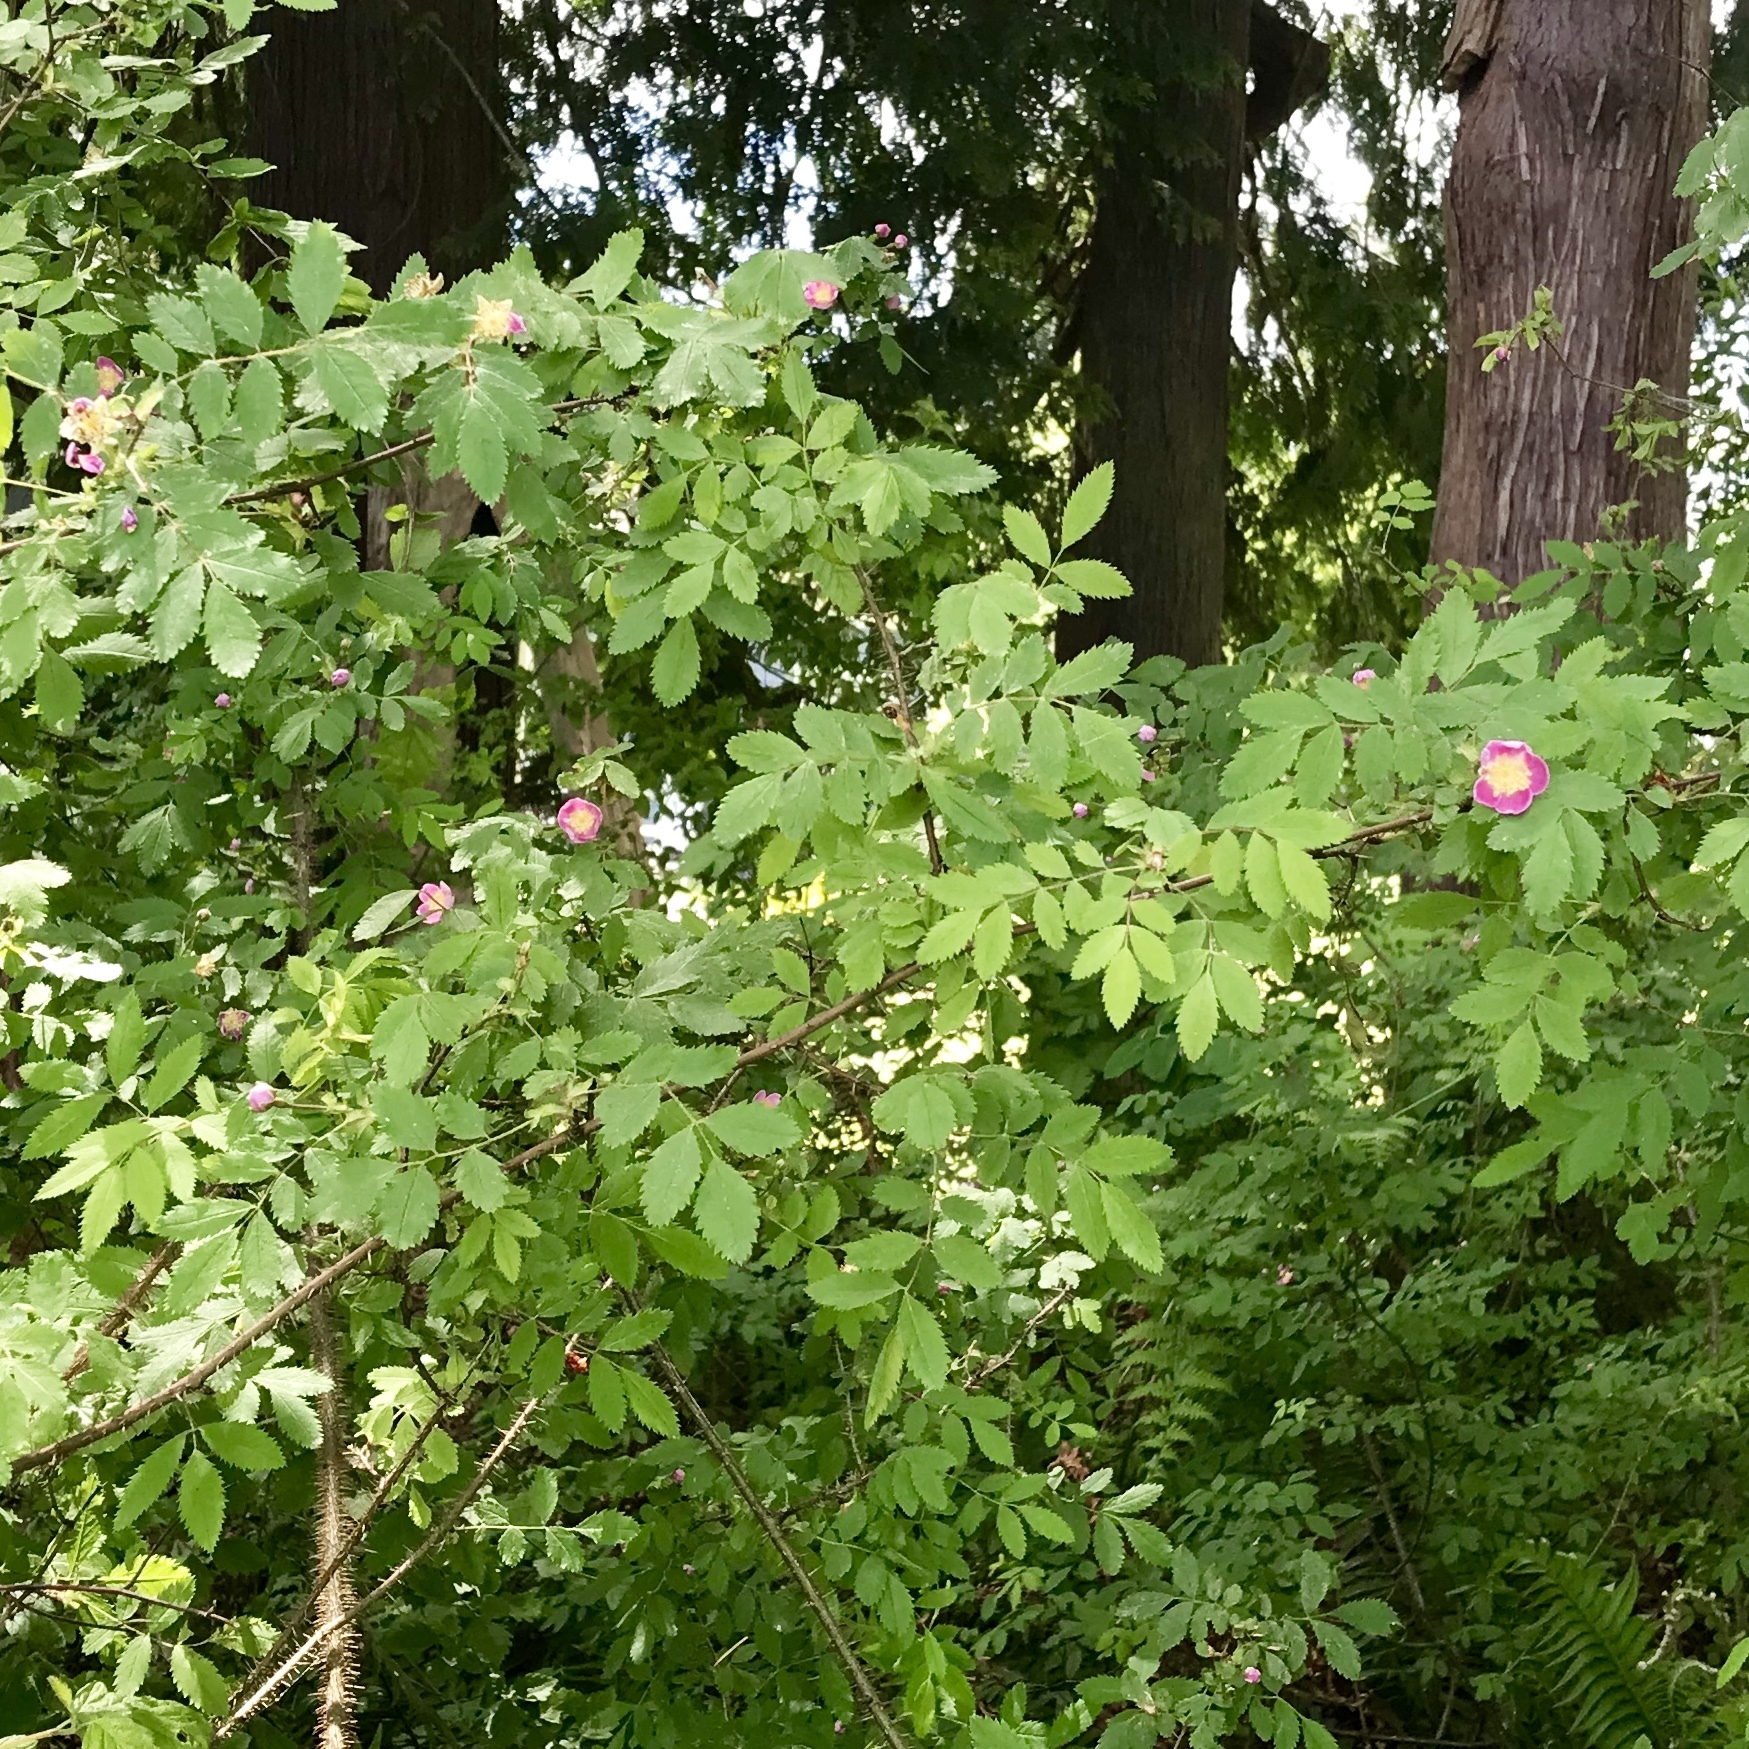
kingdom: Plantae
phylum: Tracheophyta
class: Magnoliopsida
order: Rosales
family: Rosaceae
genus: Rosa
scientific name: Rosa gymnocarpa
